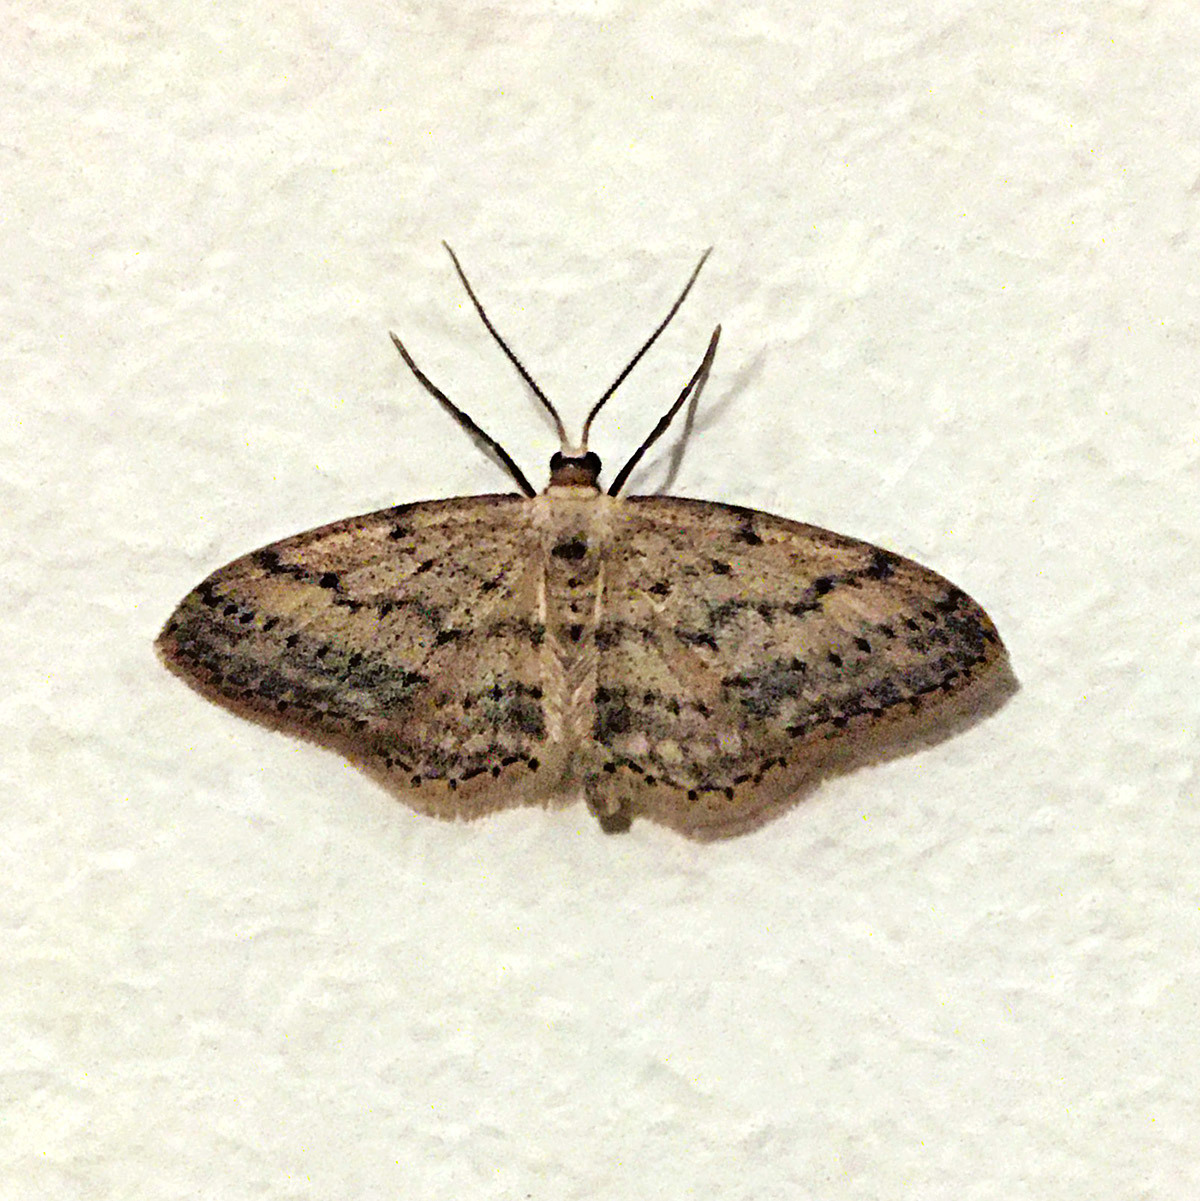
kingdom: Animalia
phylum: Arthropoda
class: Insecta
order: Lepidoptera
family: Geometridae
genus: Idaea
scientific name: Idaea seriata
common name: Small dusty wave
